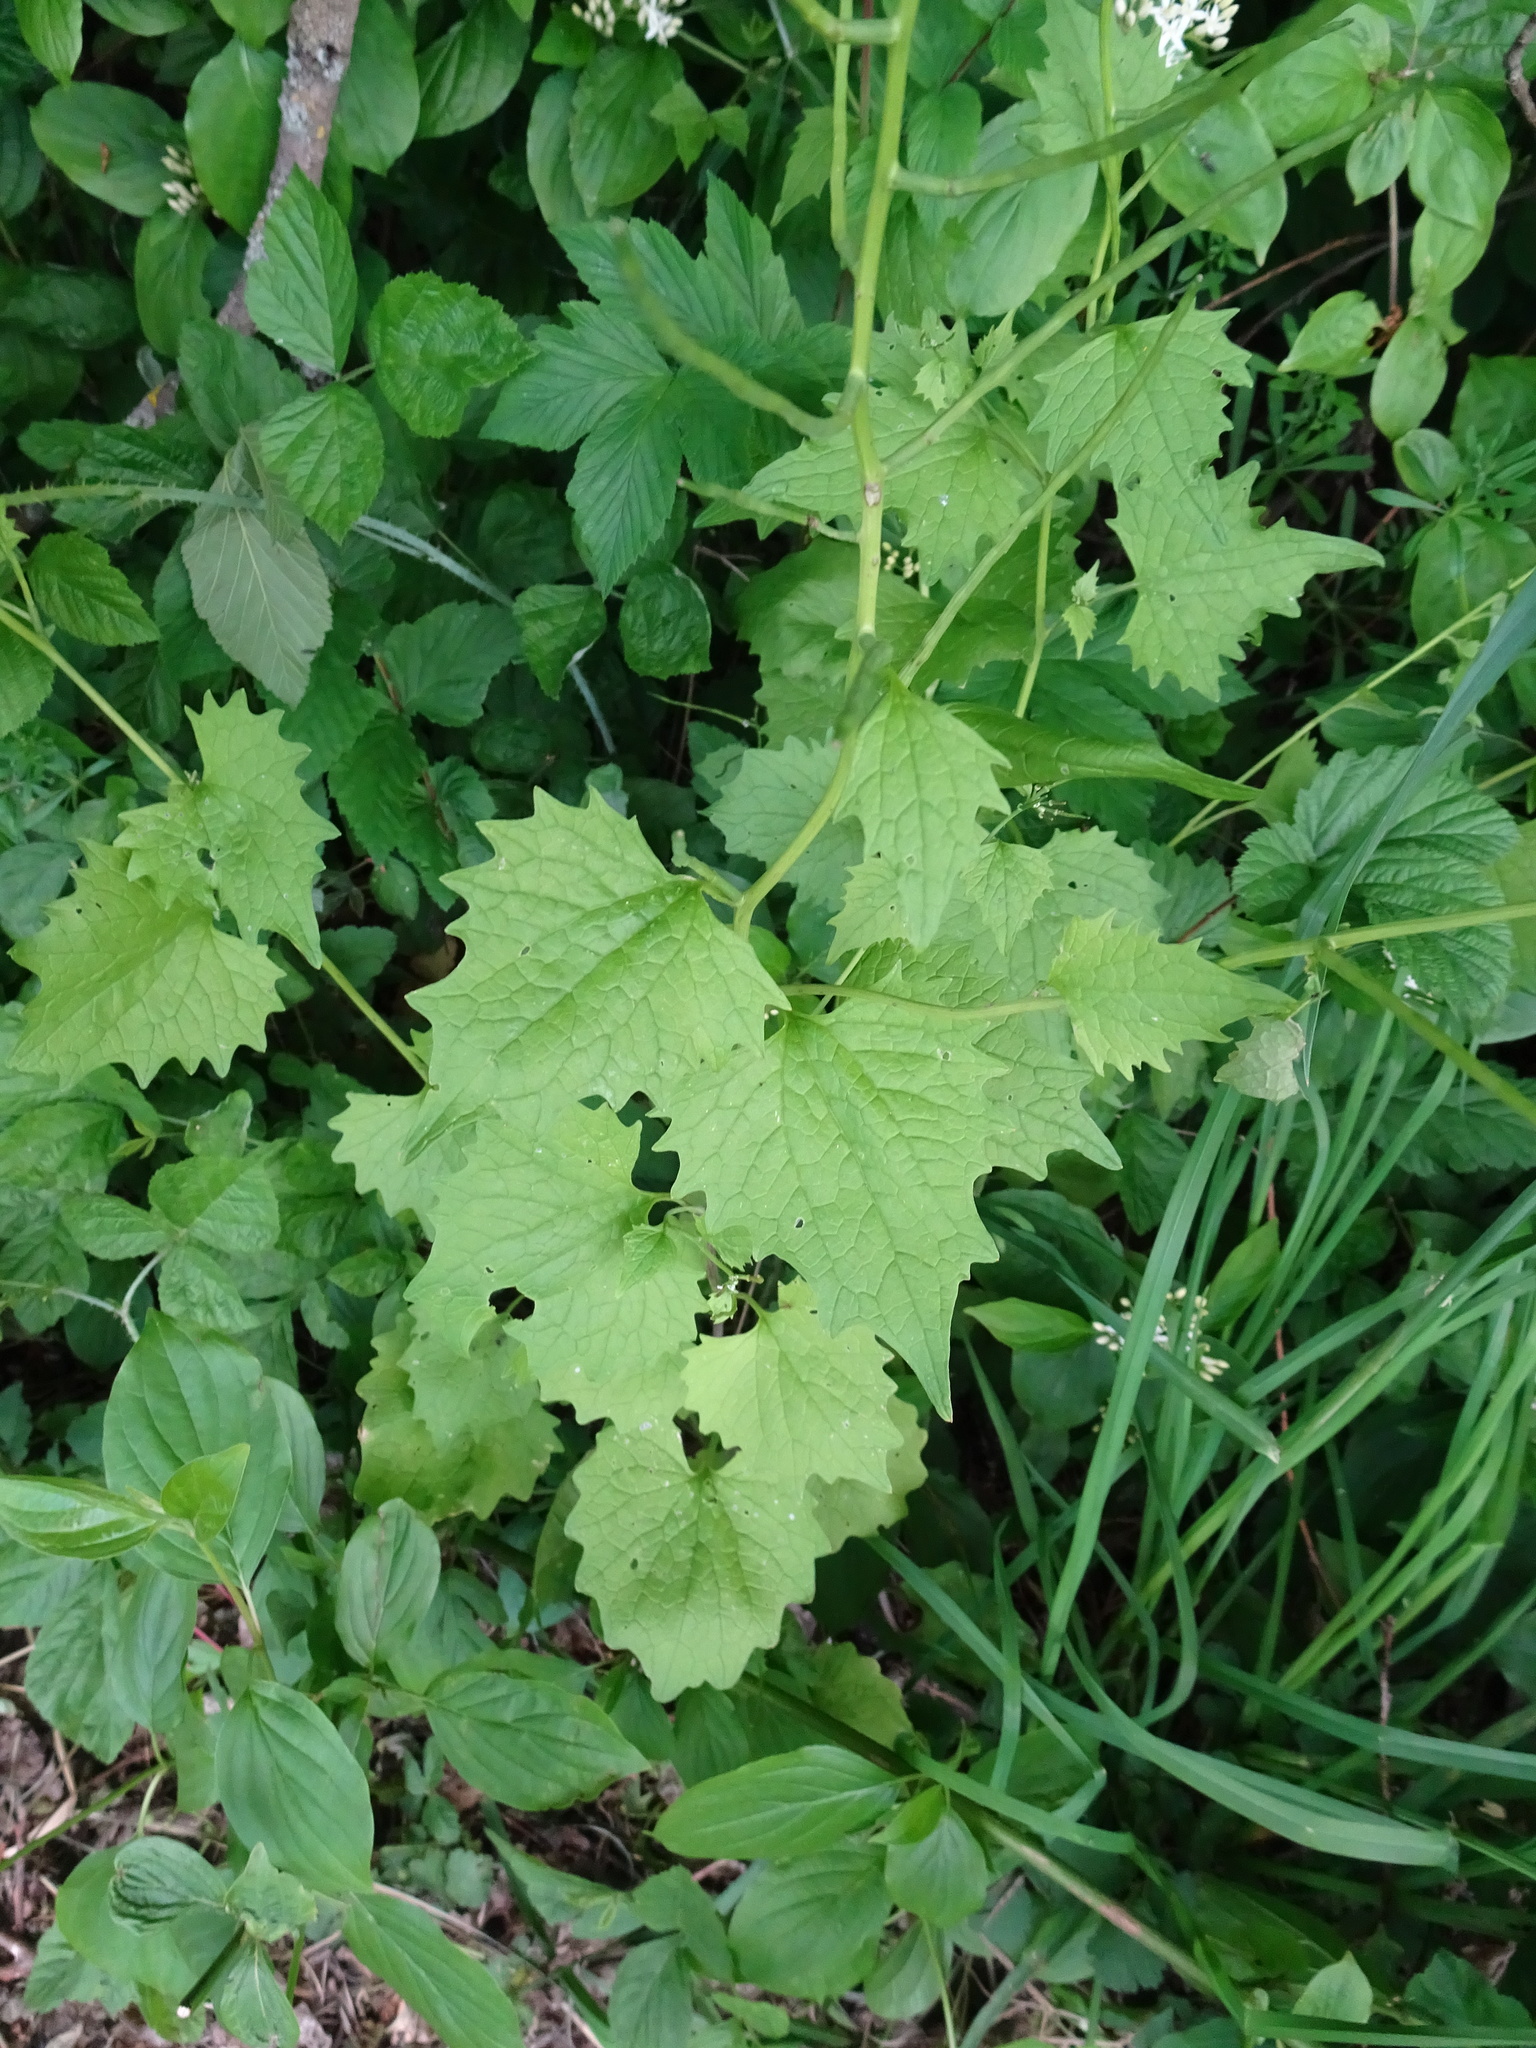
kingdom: Plantae
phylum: Tracheophyta
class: Magnoliopsida
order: Brassicales
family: Brassicaceae
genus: Alliaria
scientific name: Alliaria petiolata
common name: Garlic mustard
